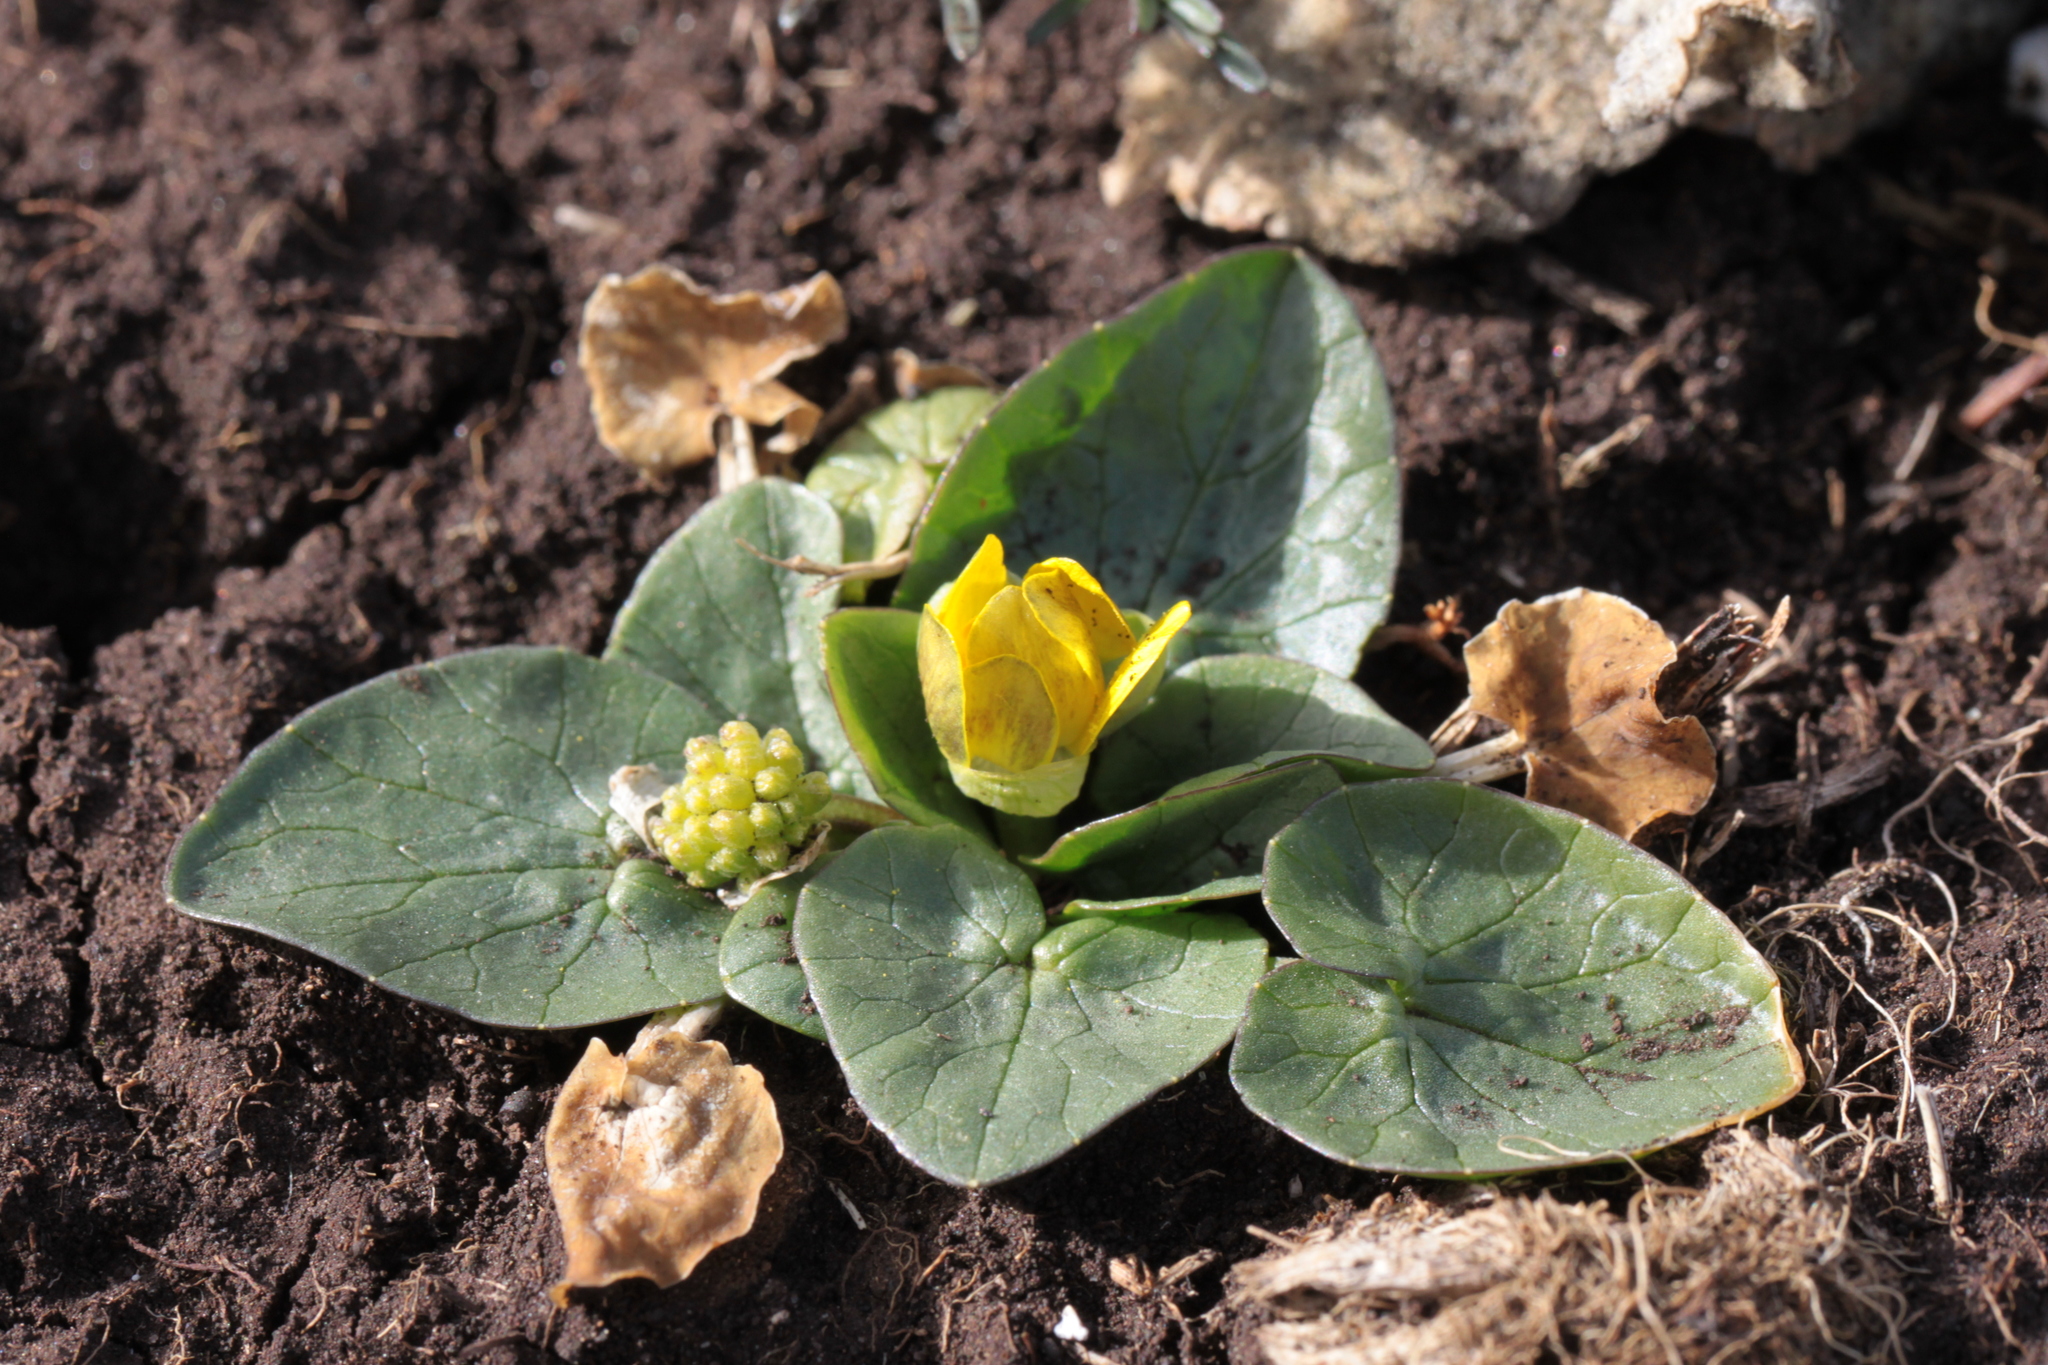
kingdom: Plantae
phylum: Tracheophyta
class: Magnoliopsida
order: Ranunculales
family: Ranunculaceae
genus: Ficaria
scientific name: Ficaria verna
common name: Lesser celandine
